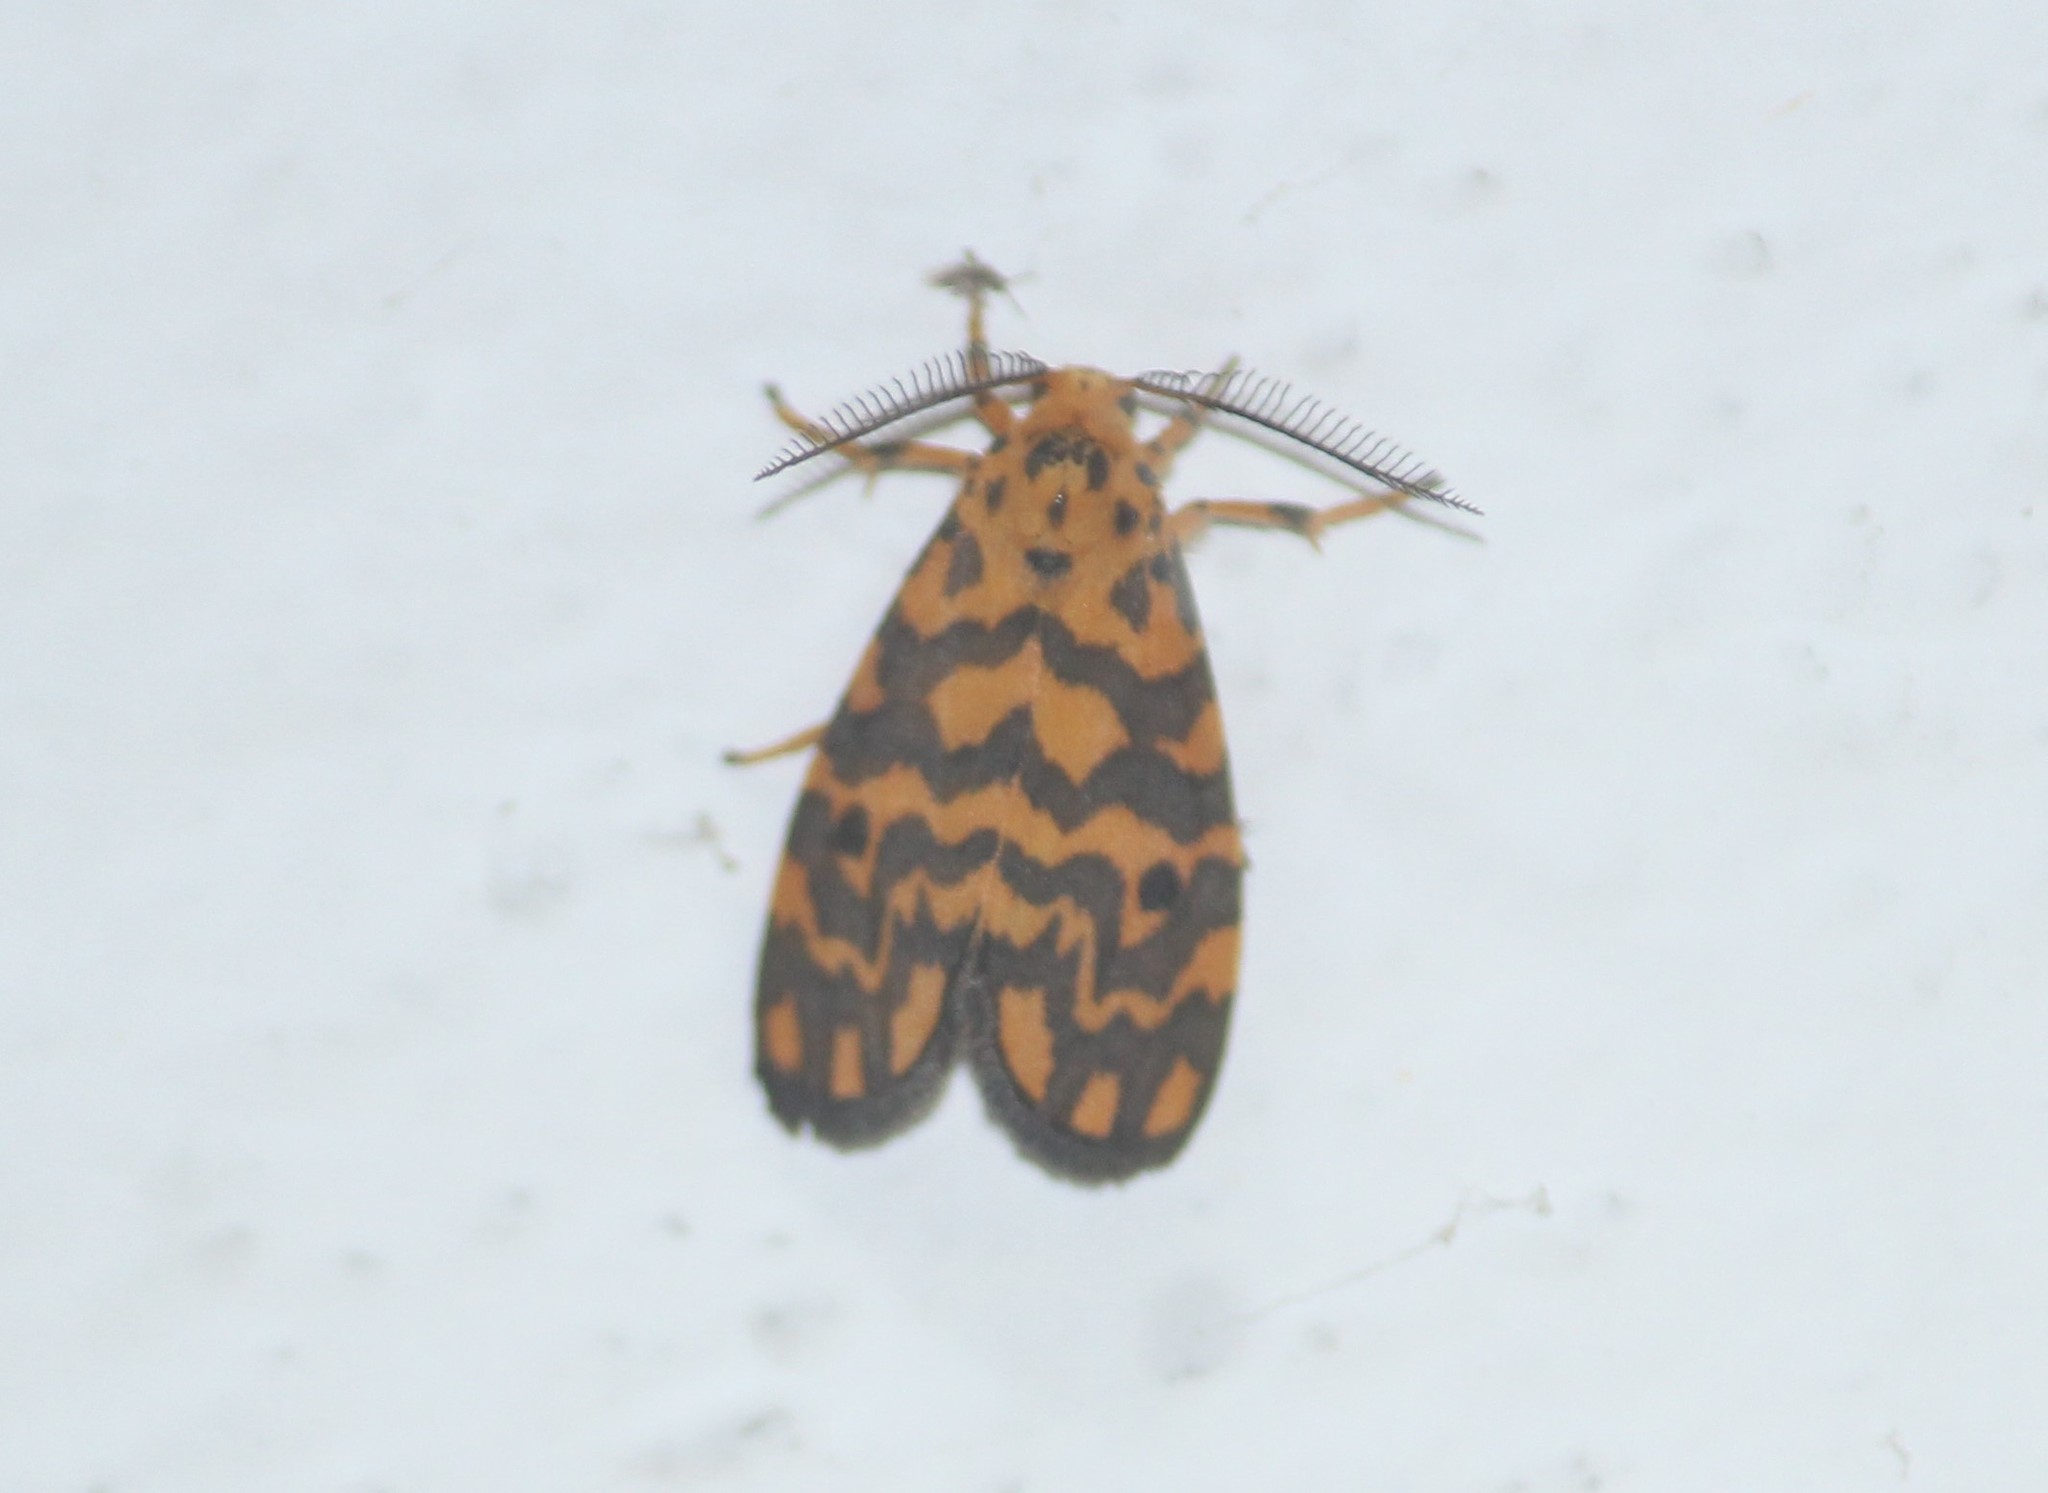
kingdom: Animalia
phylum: Arthropoda
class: Insecta
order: Lepidoptera
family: Erebidae
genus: Nepita
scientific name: Nepita conferta
